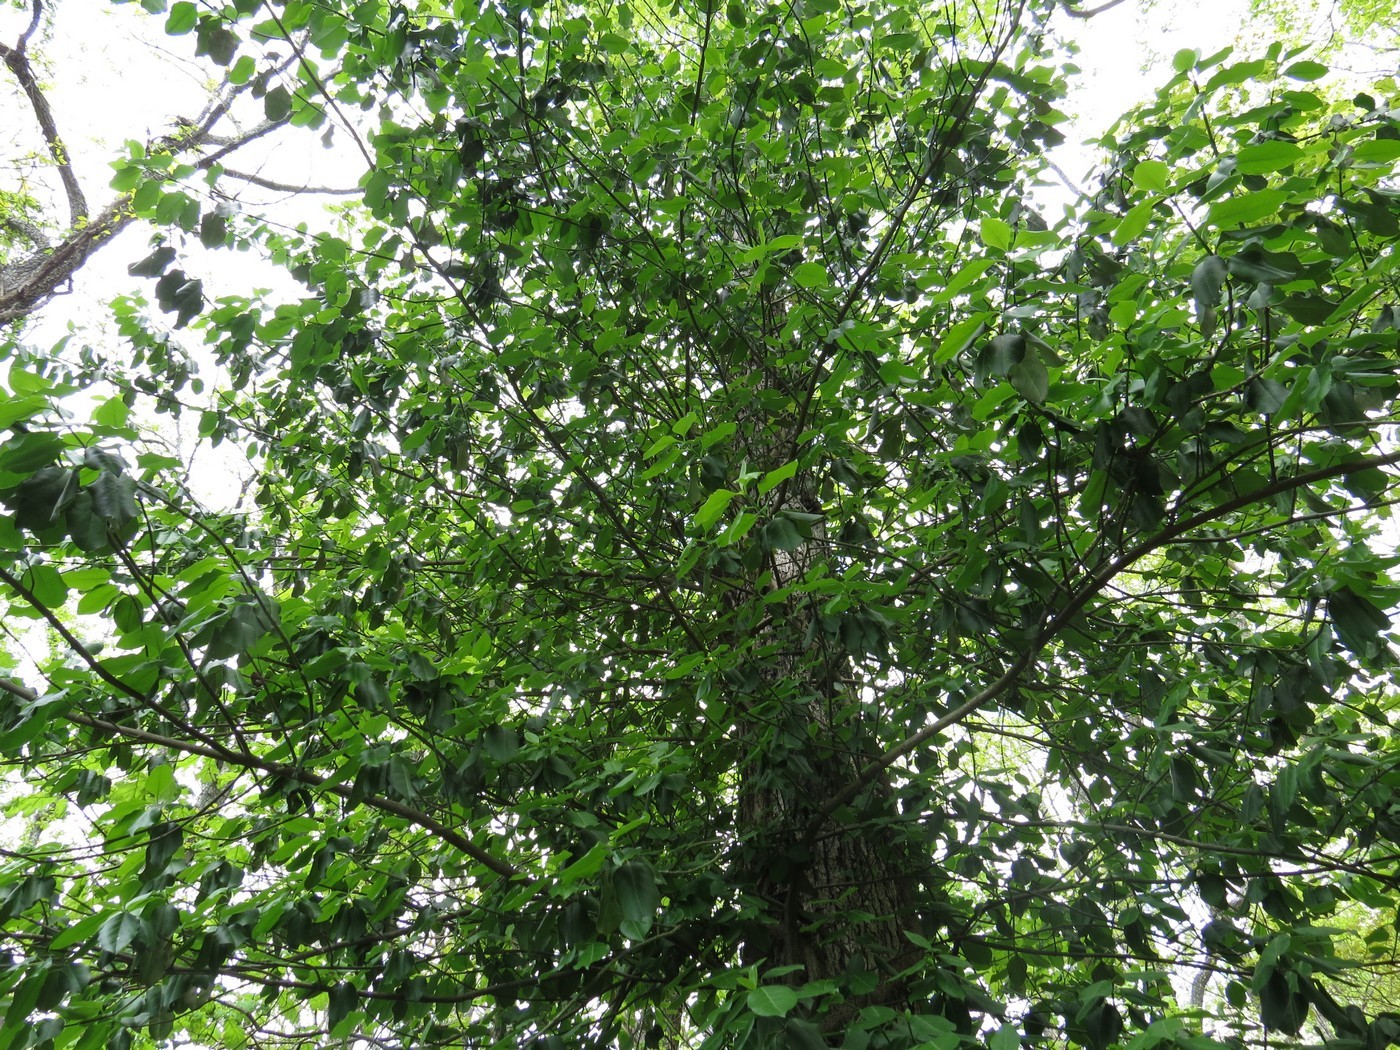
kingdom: Plantae
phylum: Tracheophyta
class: Magnoliopsida
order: Celastrales
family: Celastraceae
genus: Euonymus
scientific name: Euonymus fortunei
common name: Climbing euonymus
